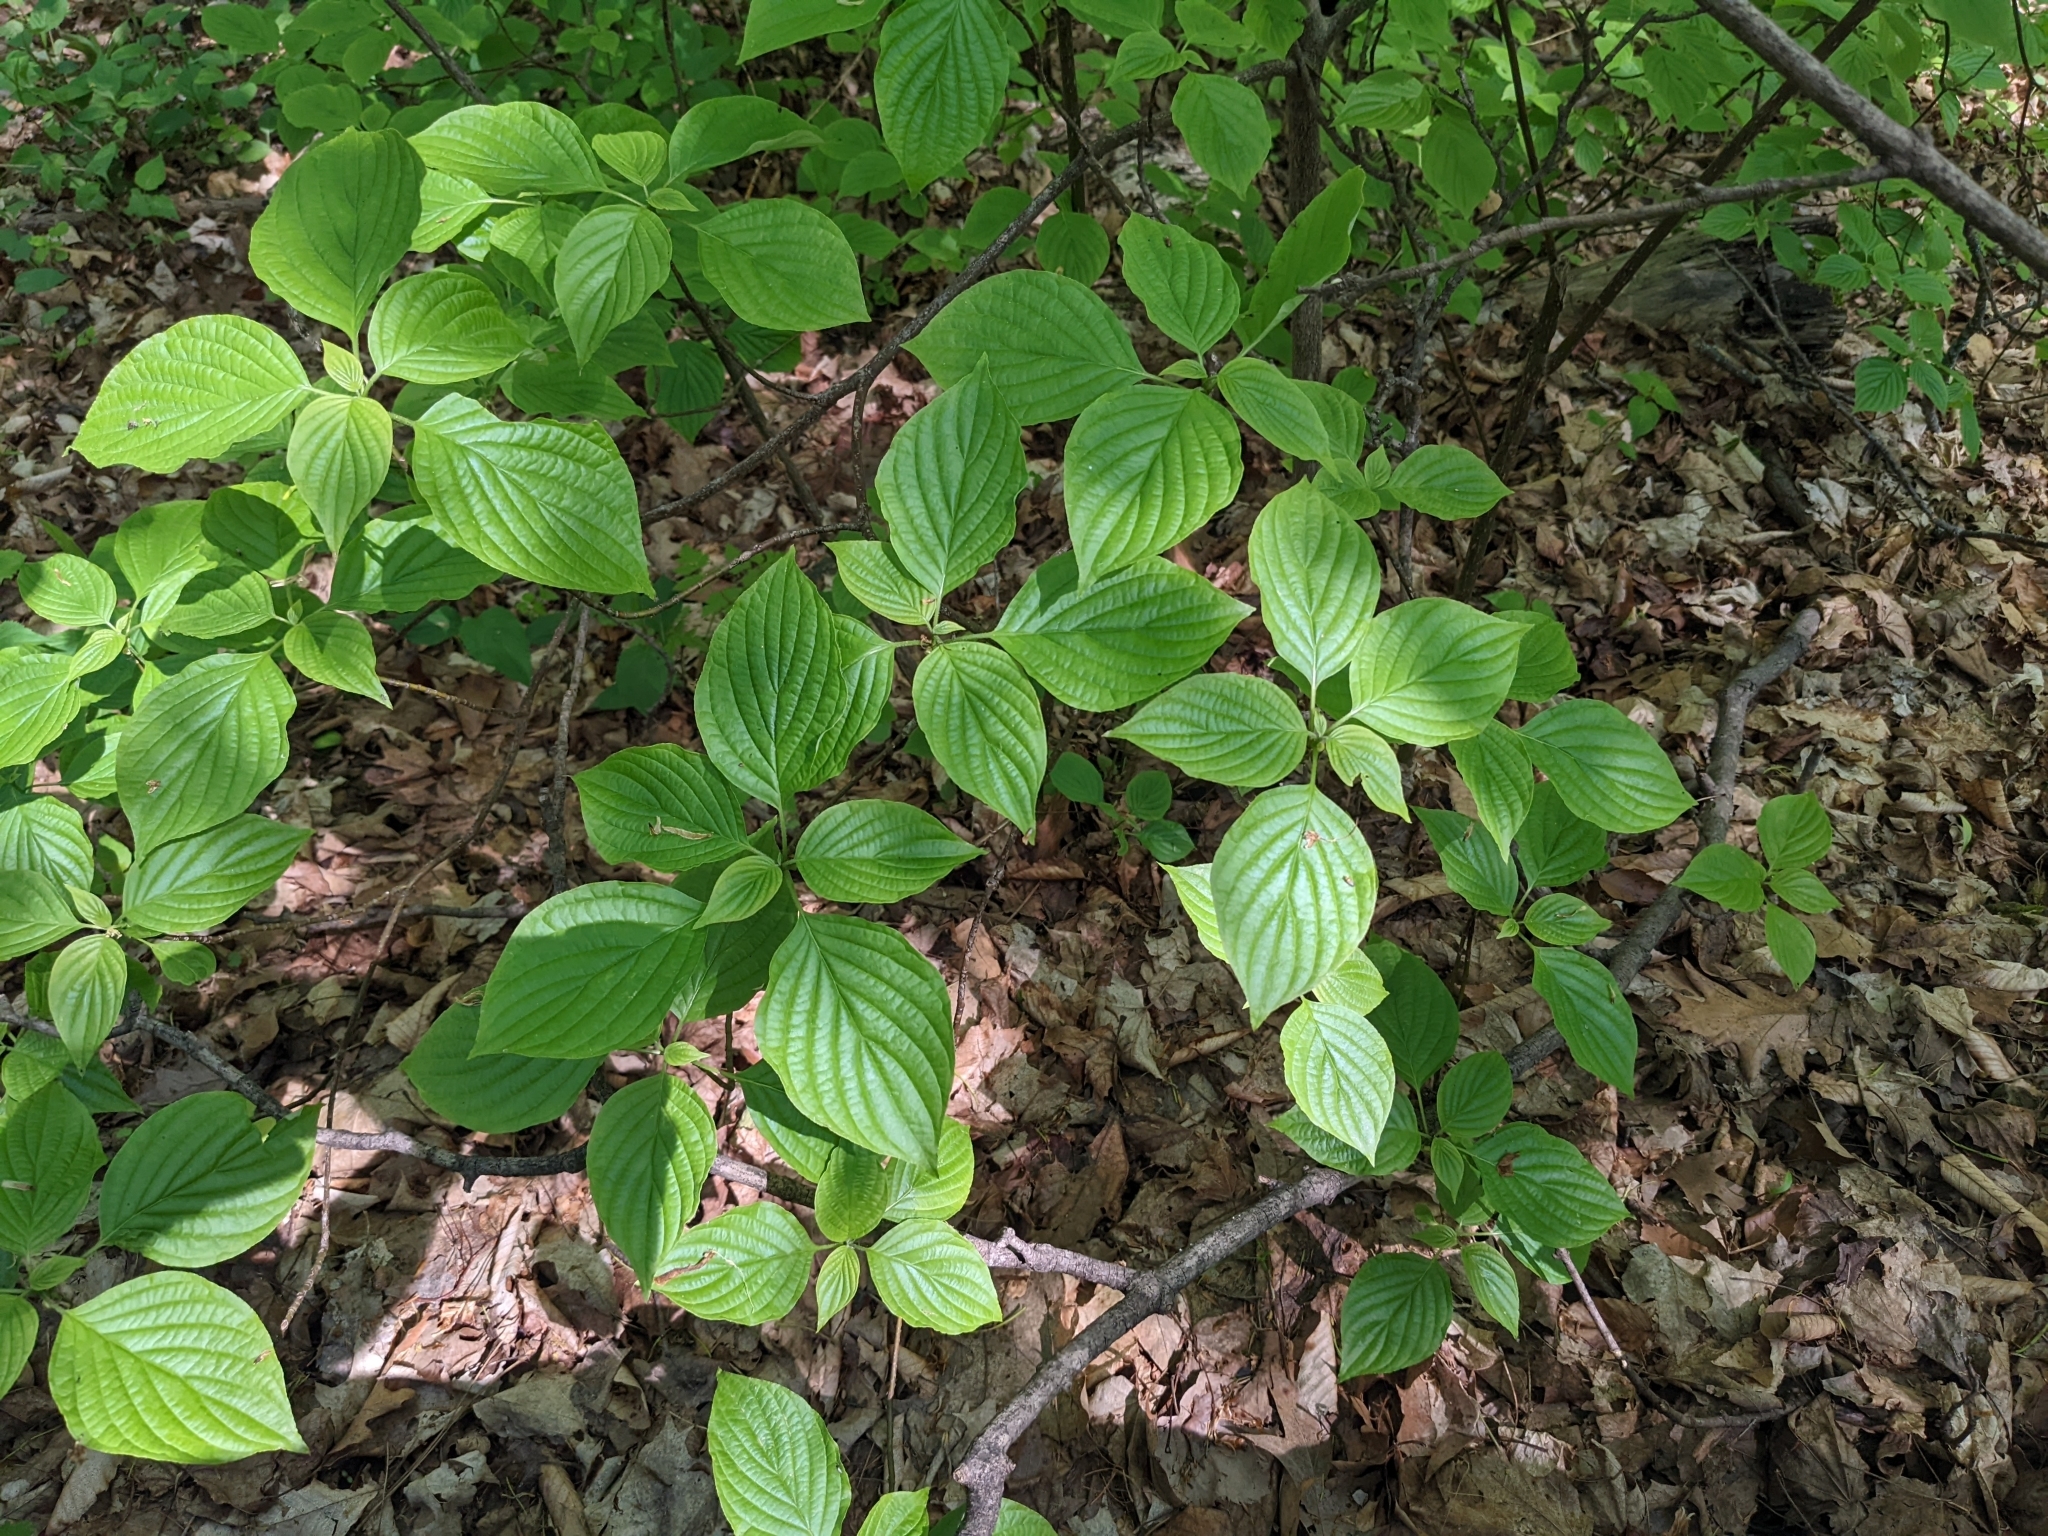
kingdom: Plantae
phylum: Tracheophyta
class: Magnoliopsida
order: Cornales
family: Cornaceae
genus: Cornus
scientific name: Cornus alternifolia
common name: Pagoda dogwood
